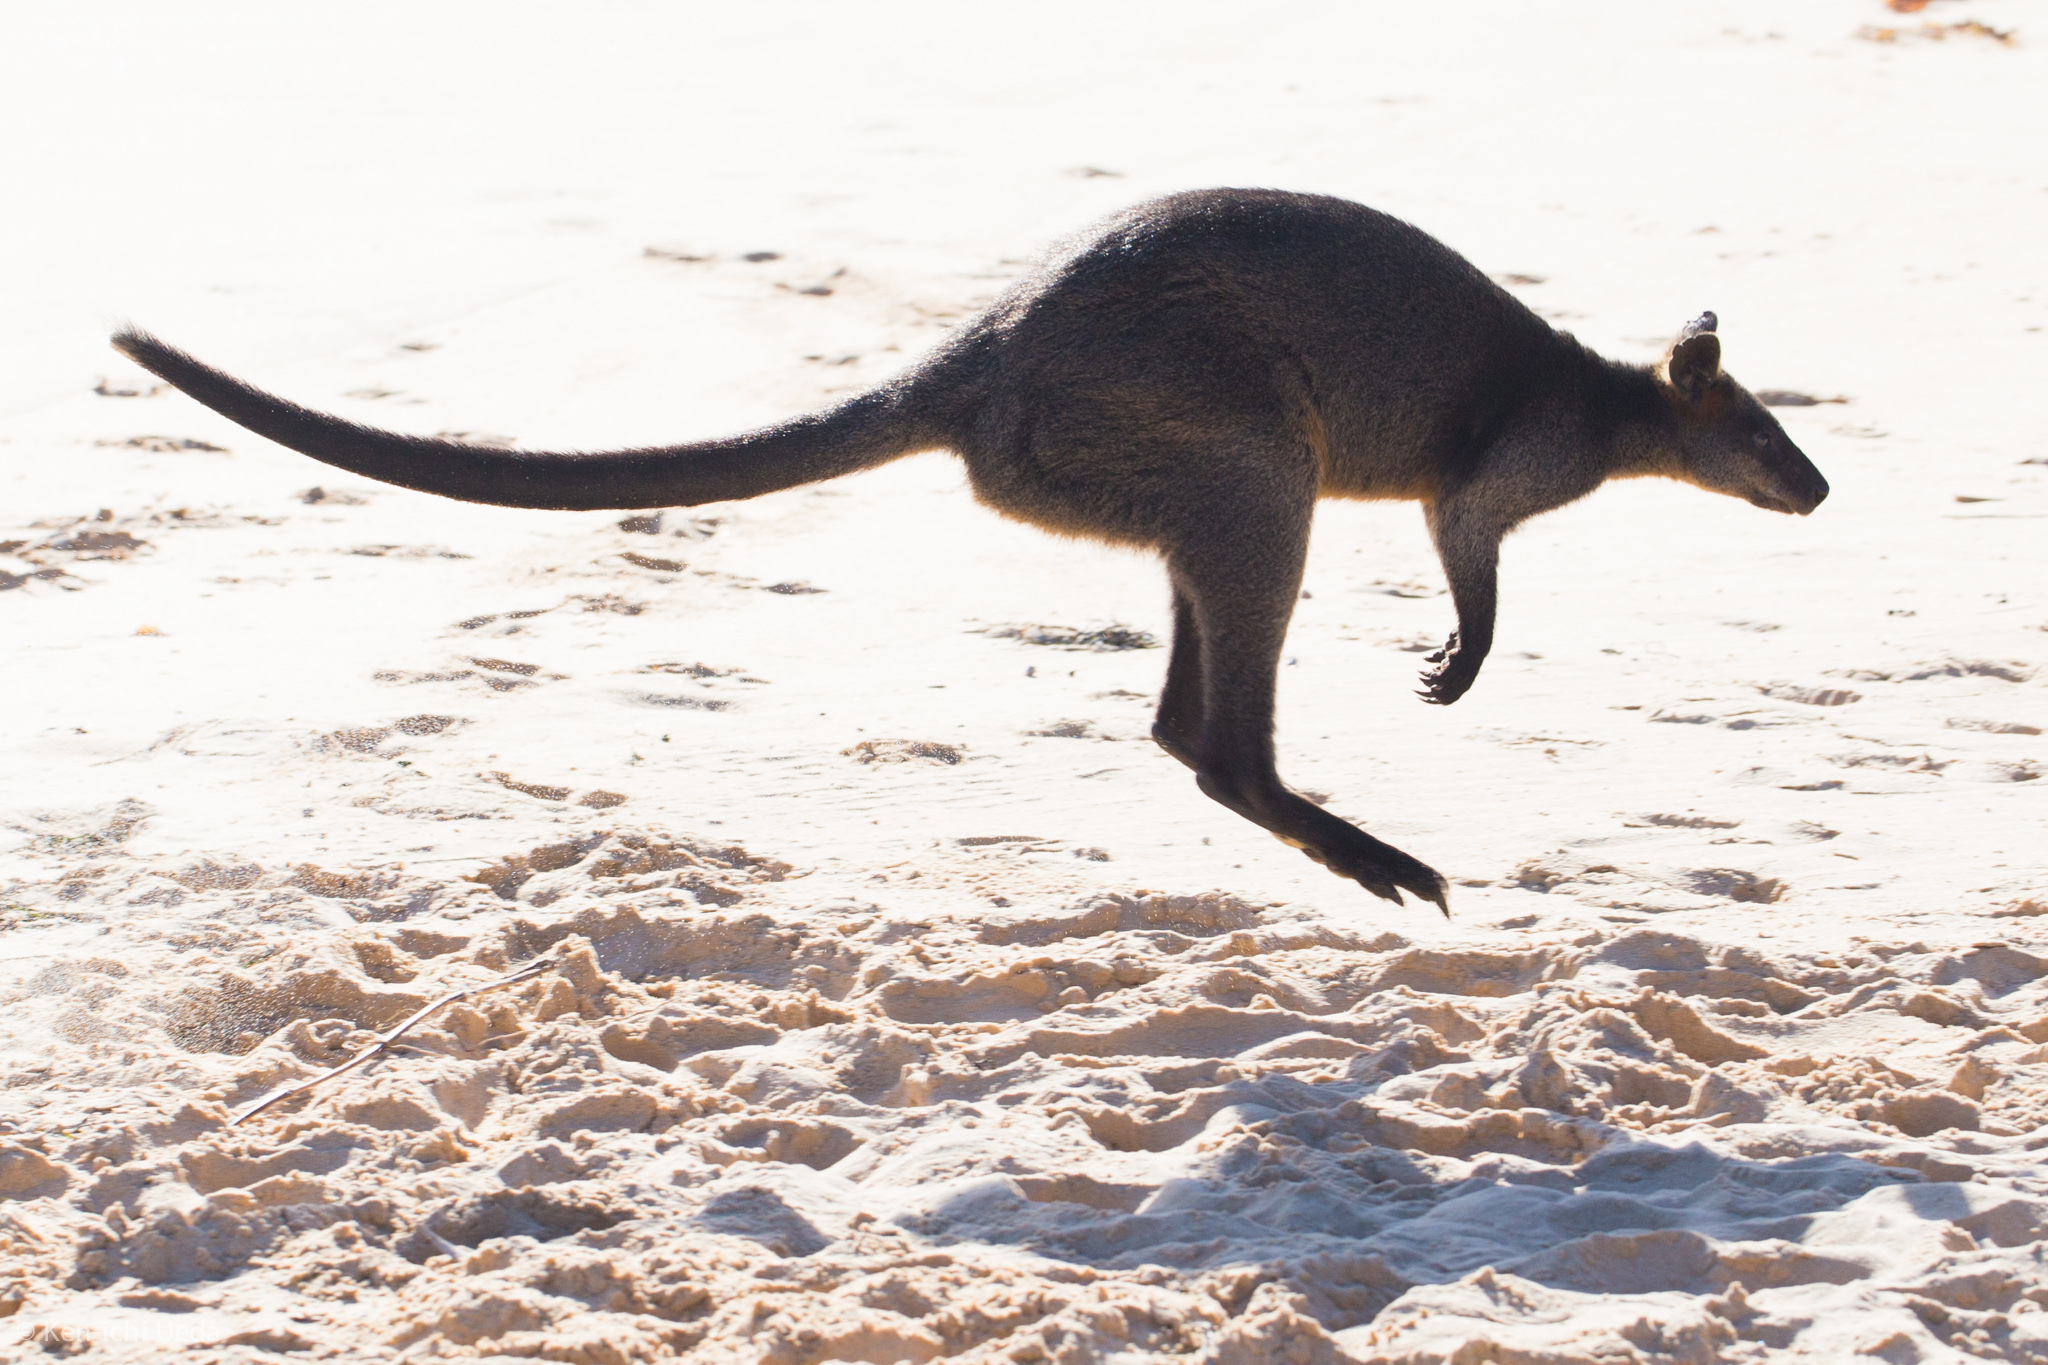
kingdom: Animalia
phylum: Chordata
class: Mammalia
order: Diprotodontia
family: Macropodidae
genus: Wallabia
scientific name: Wallabia bicolor
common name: Swamp wallaby
